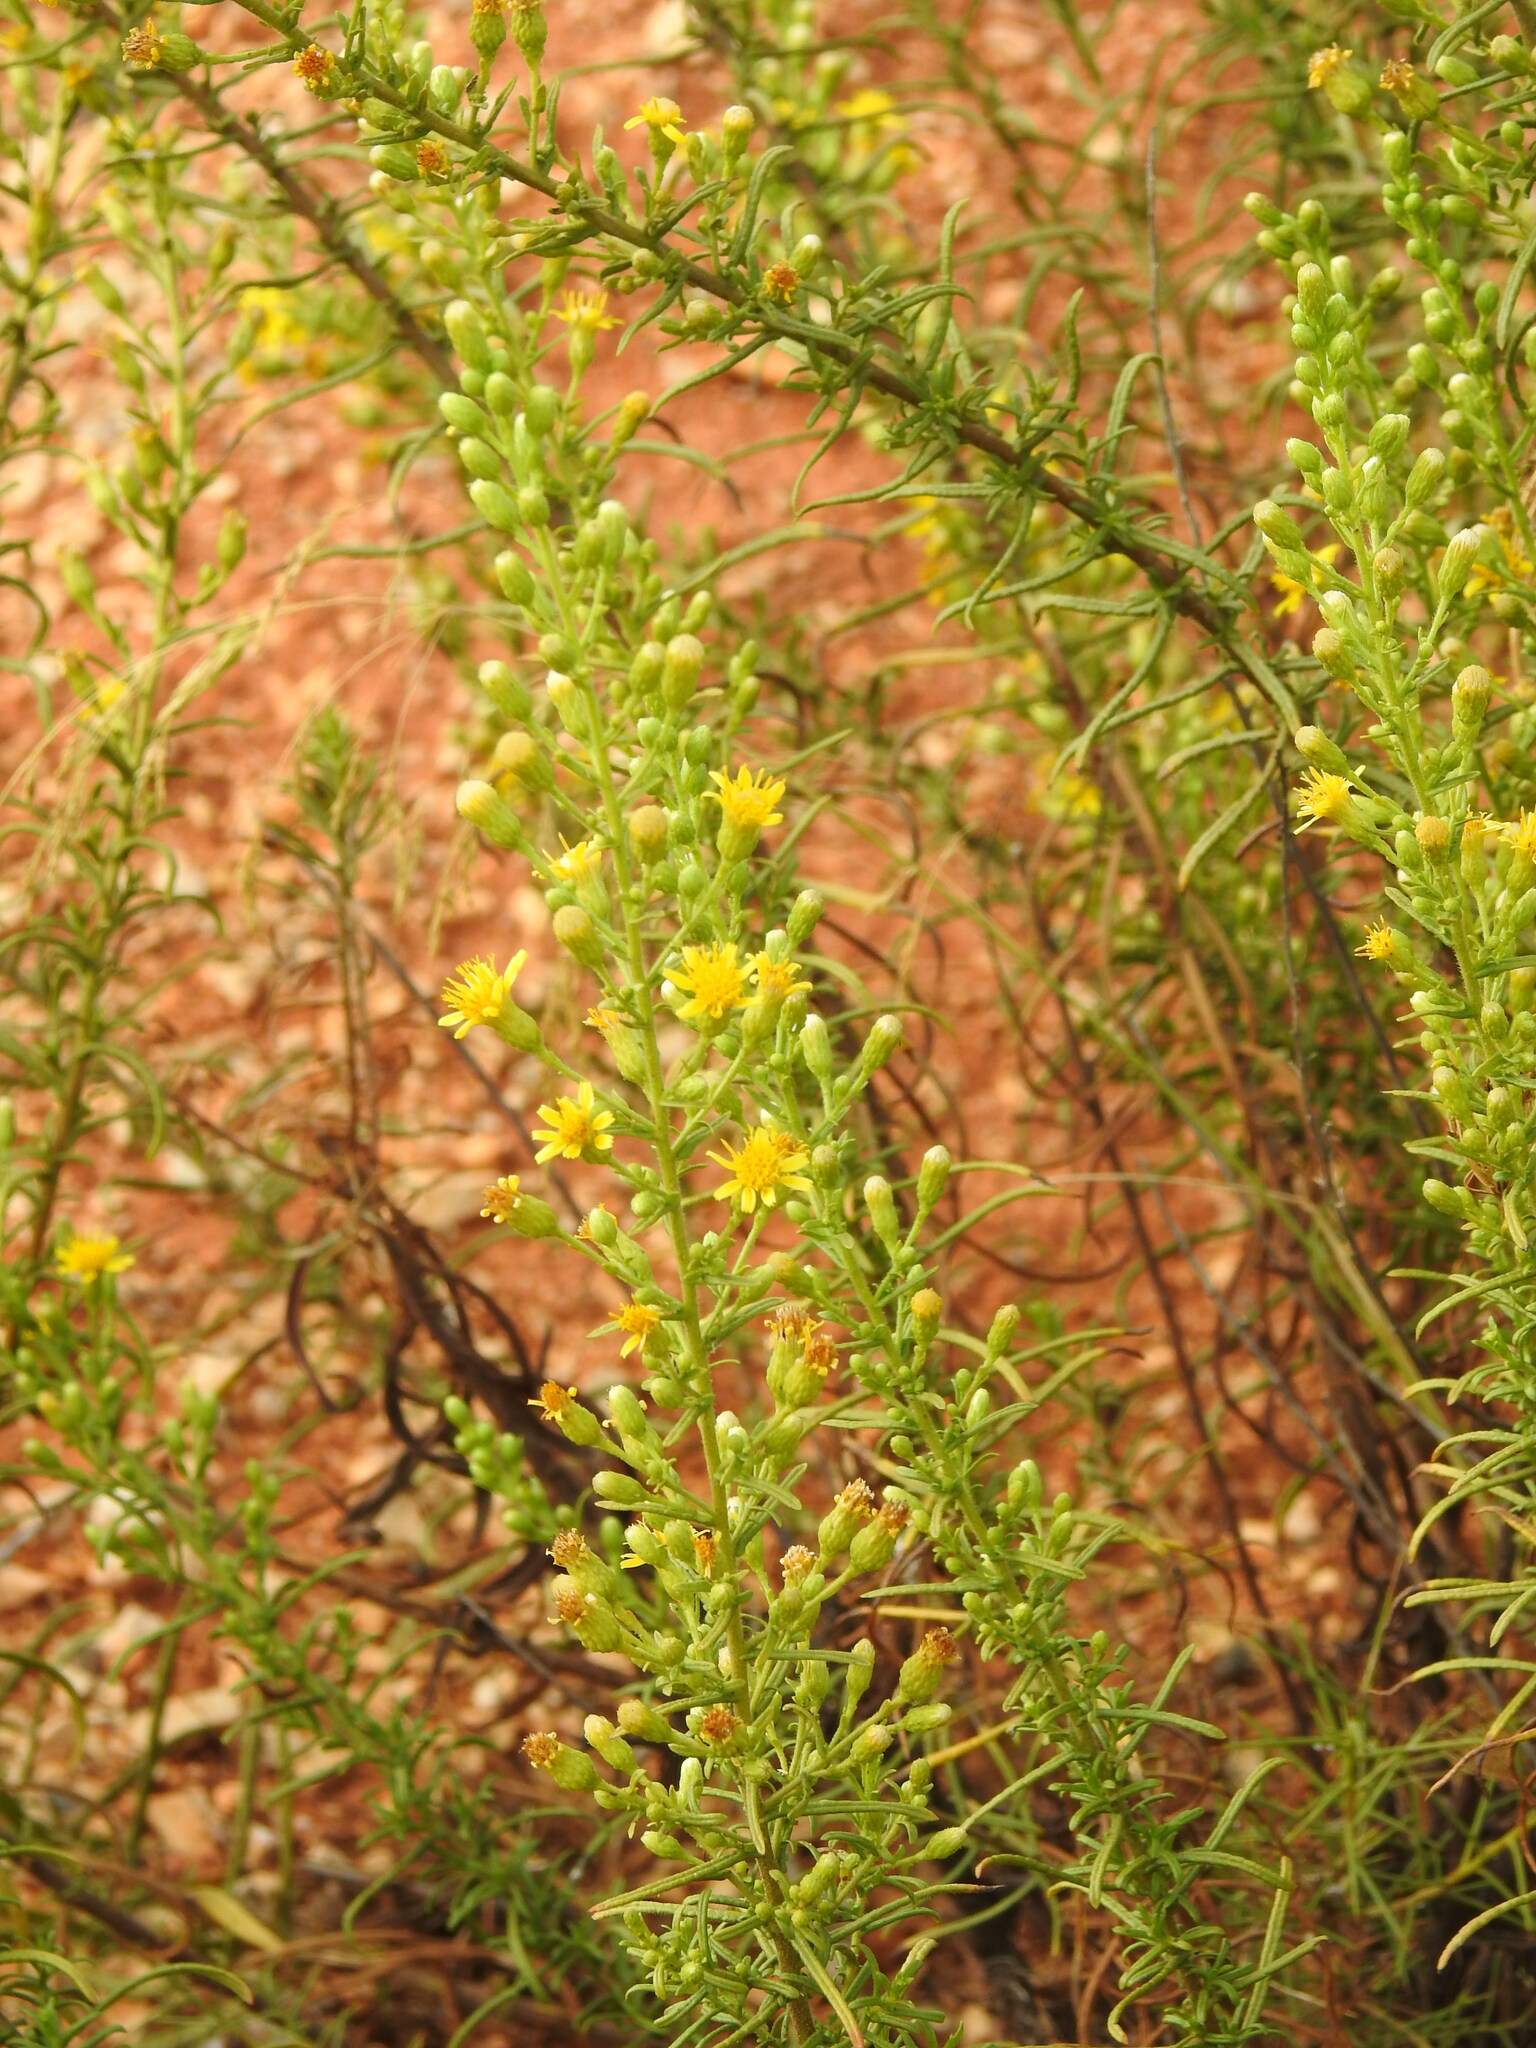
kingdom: Plantae
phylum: Tracheophyta
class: Magnoliopsida
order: Asterales
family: Asteraceae
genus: Dittrichia
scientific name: Dittrichia viscosa
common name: Woody fleabane
